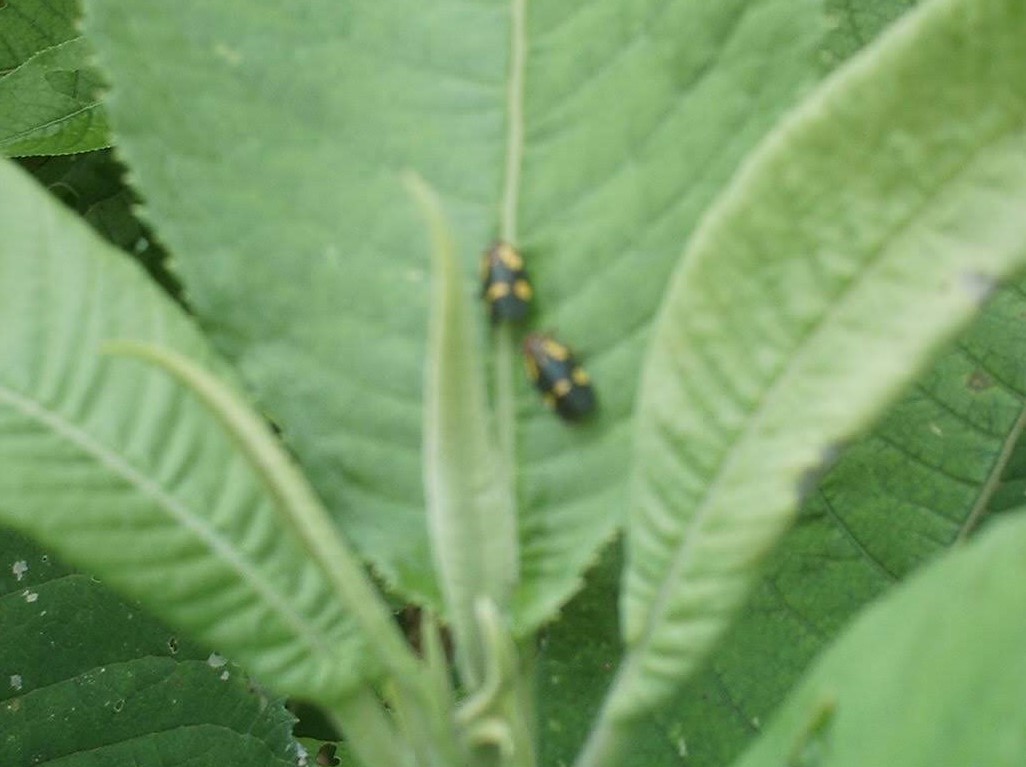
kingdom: Animalia
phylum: Arthropoda
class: Insecta
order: Hemiptera
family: Cercopidae
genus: Sphenorhina
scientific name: Sphenorhina limbata
